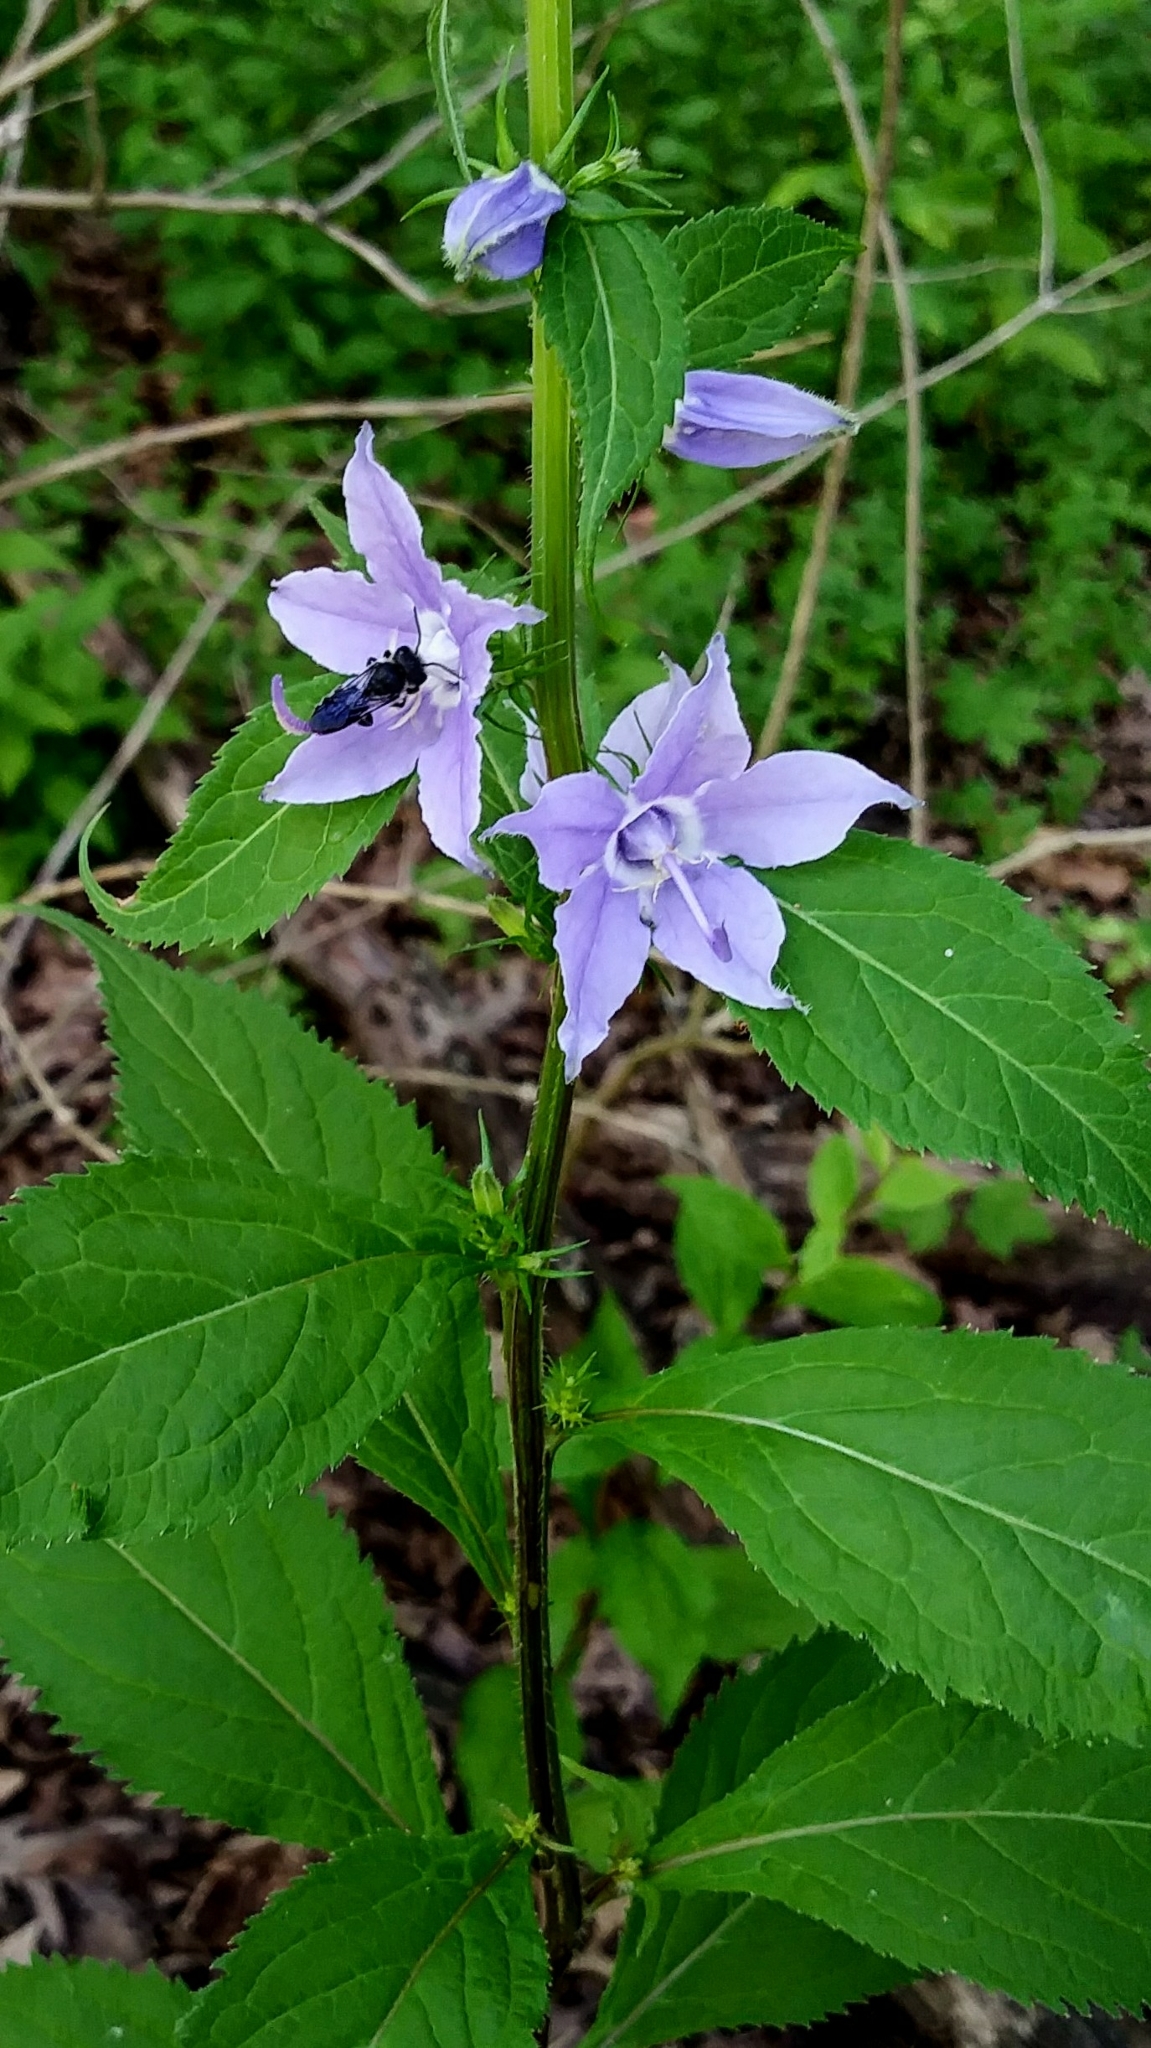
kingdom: Plantae
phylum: Tracheophyta
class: Magnoliopsida
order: Asterales
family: Campanulaceae
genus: Campanulastrum
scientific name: Campanulastrum americanum
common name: American bellflower
